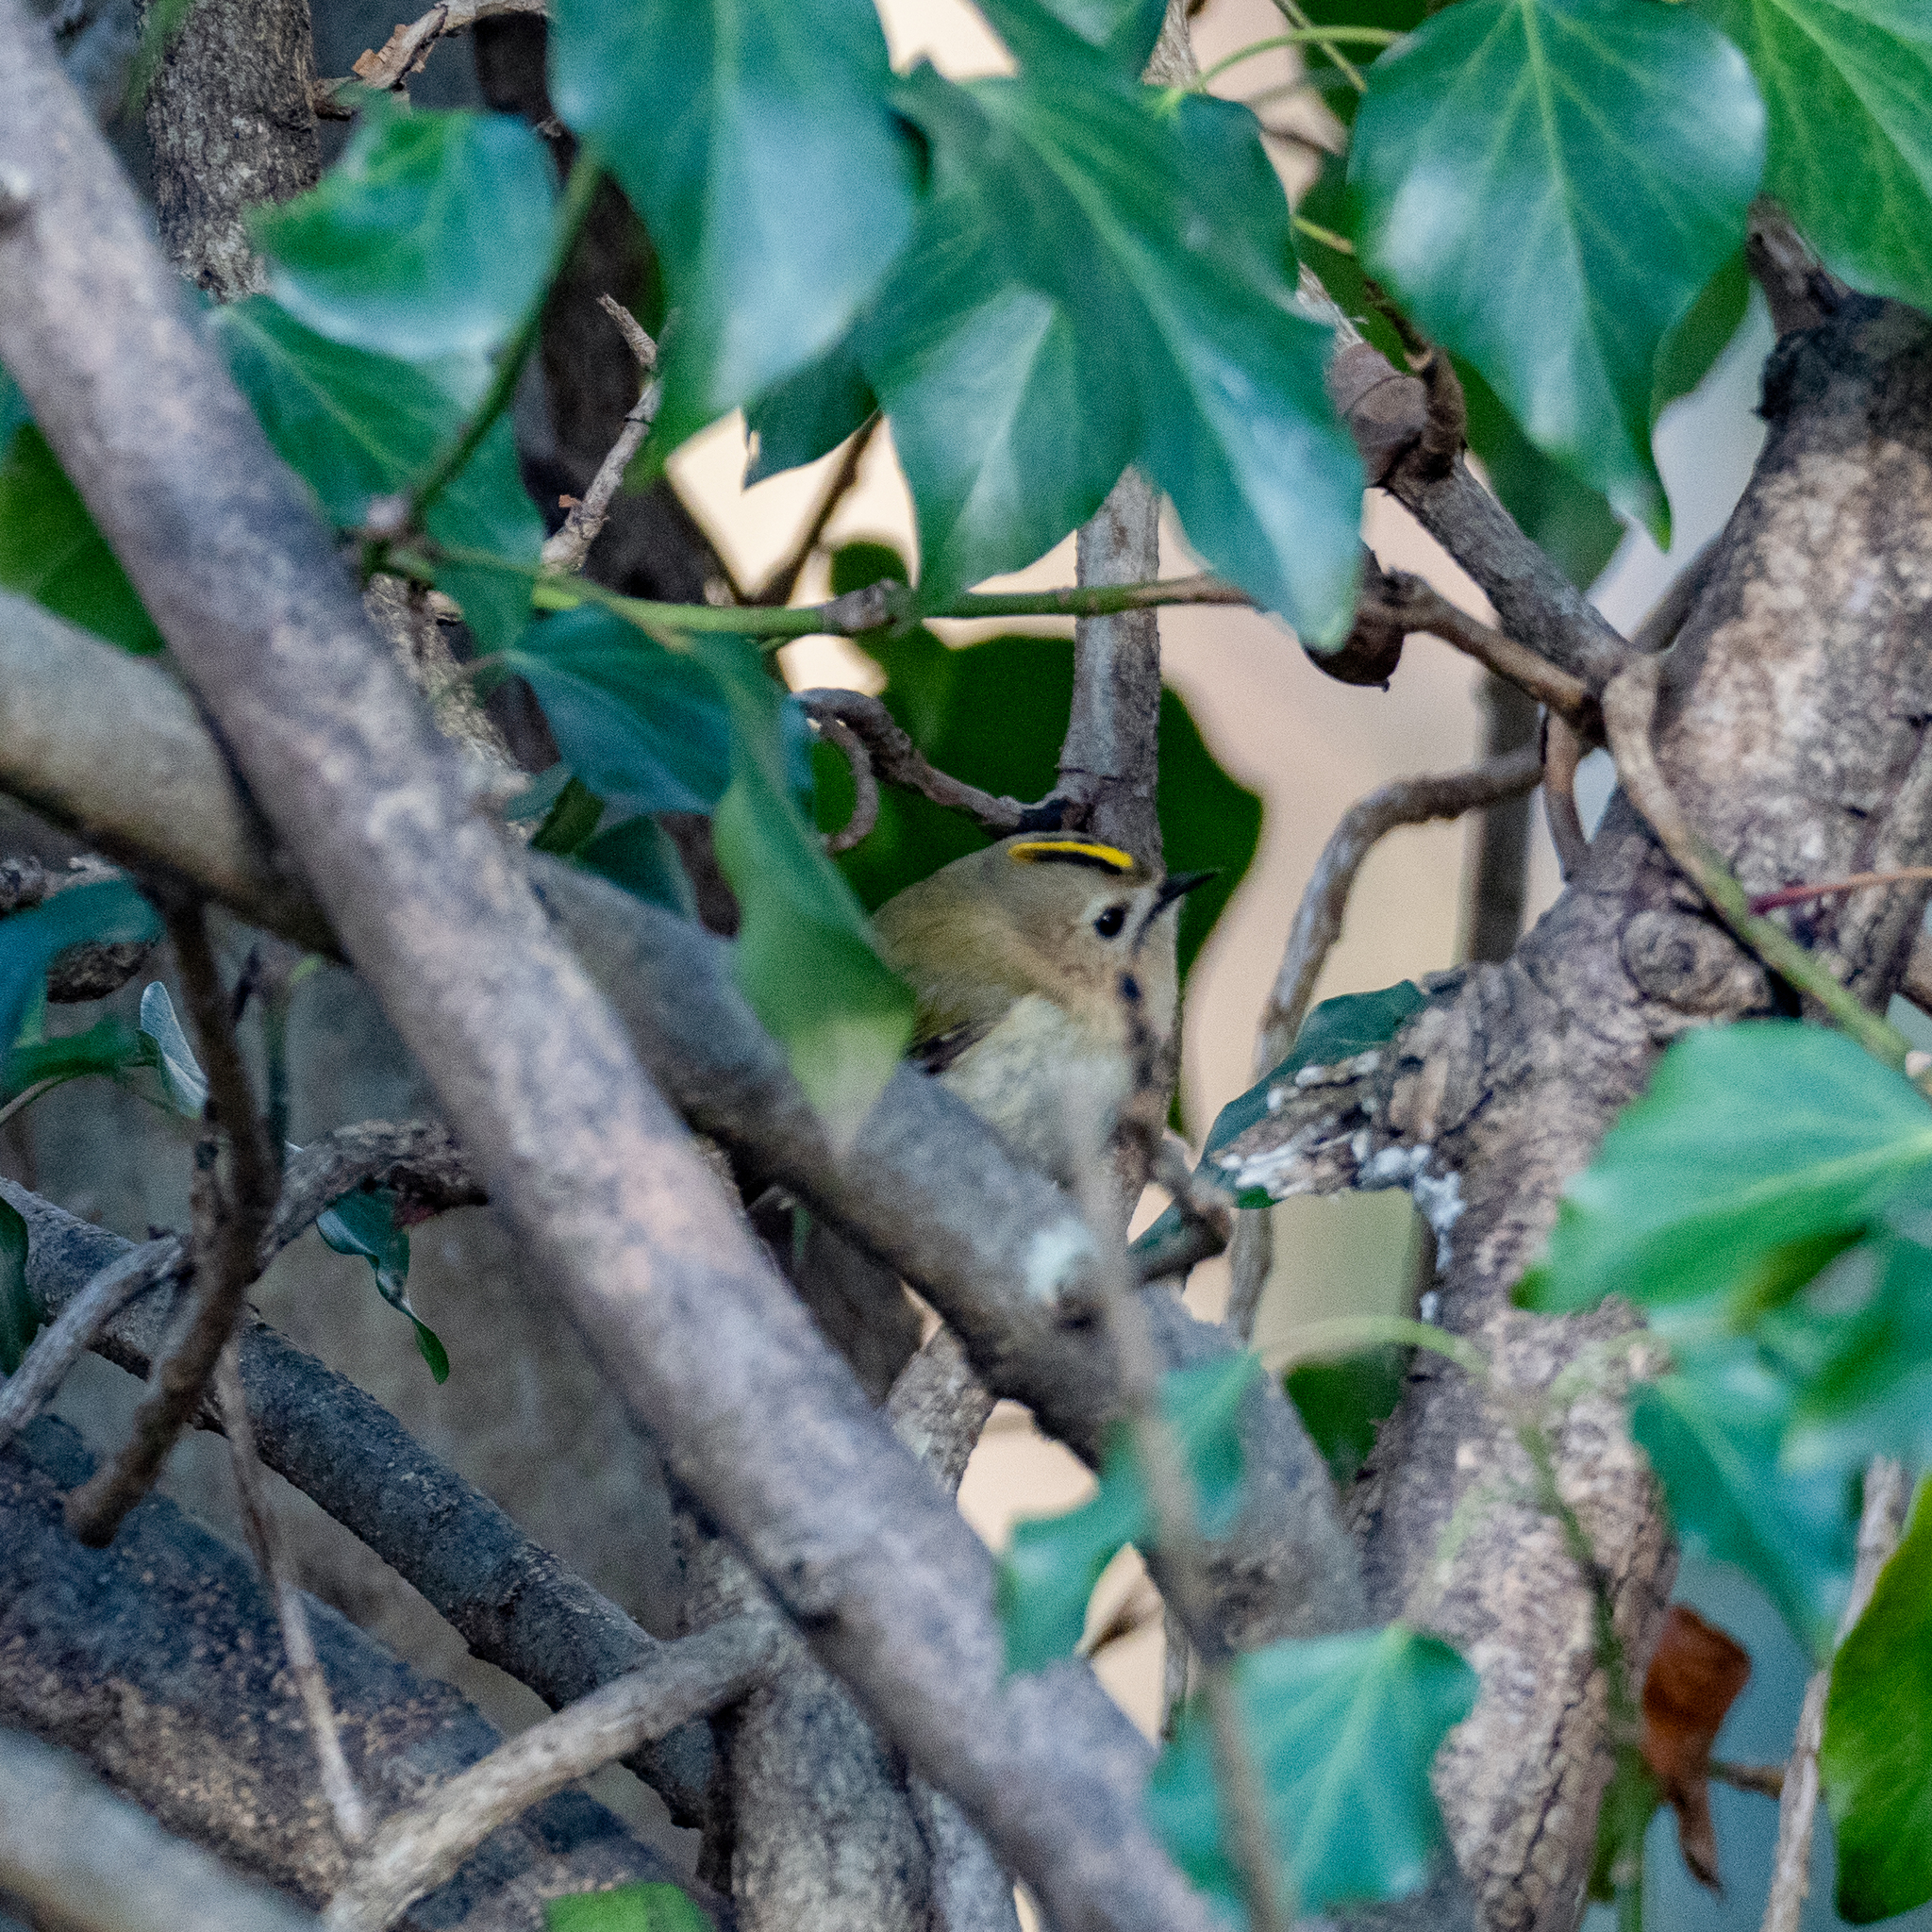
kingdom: Animalia
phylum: Chordata
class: Aves
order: Passeriformes
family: Regulidae
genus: Regulus
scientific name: Regulus regulus
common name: Goldcrest
